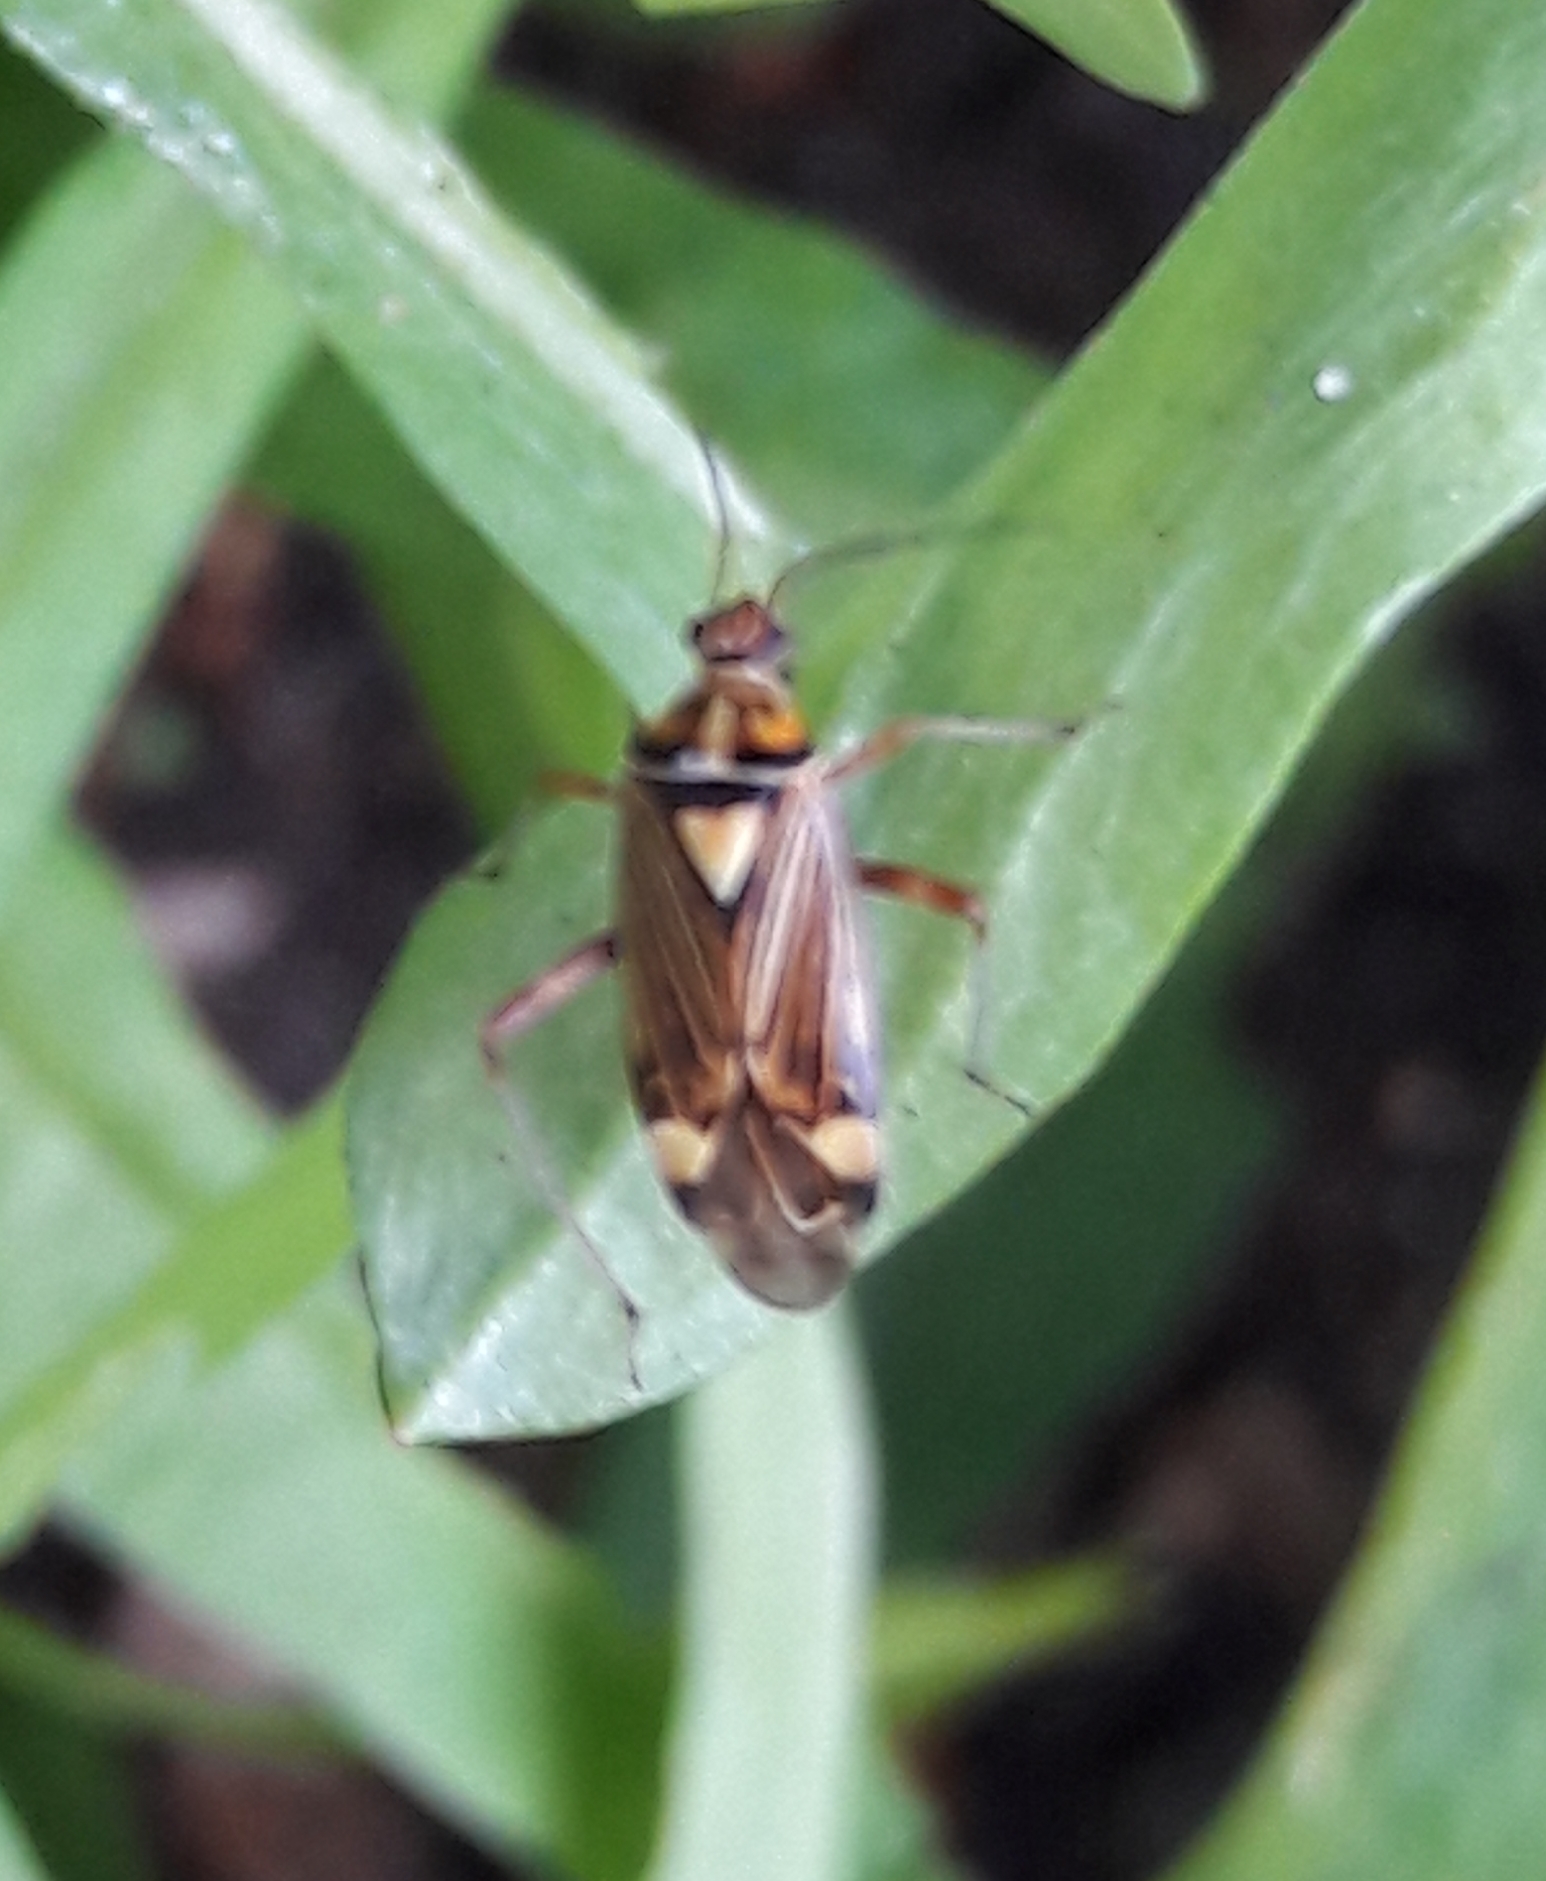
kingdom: Animalia
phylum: Arthropoda
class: Insecta
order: Hemiptera
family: Miridae
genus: Rhabdomiris
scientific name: Rhabdomiris striatellus
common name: Plant bug
